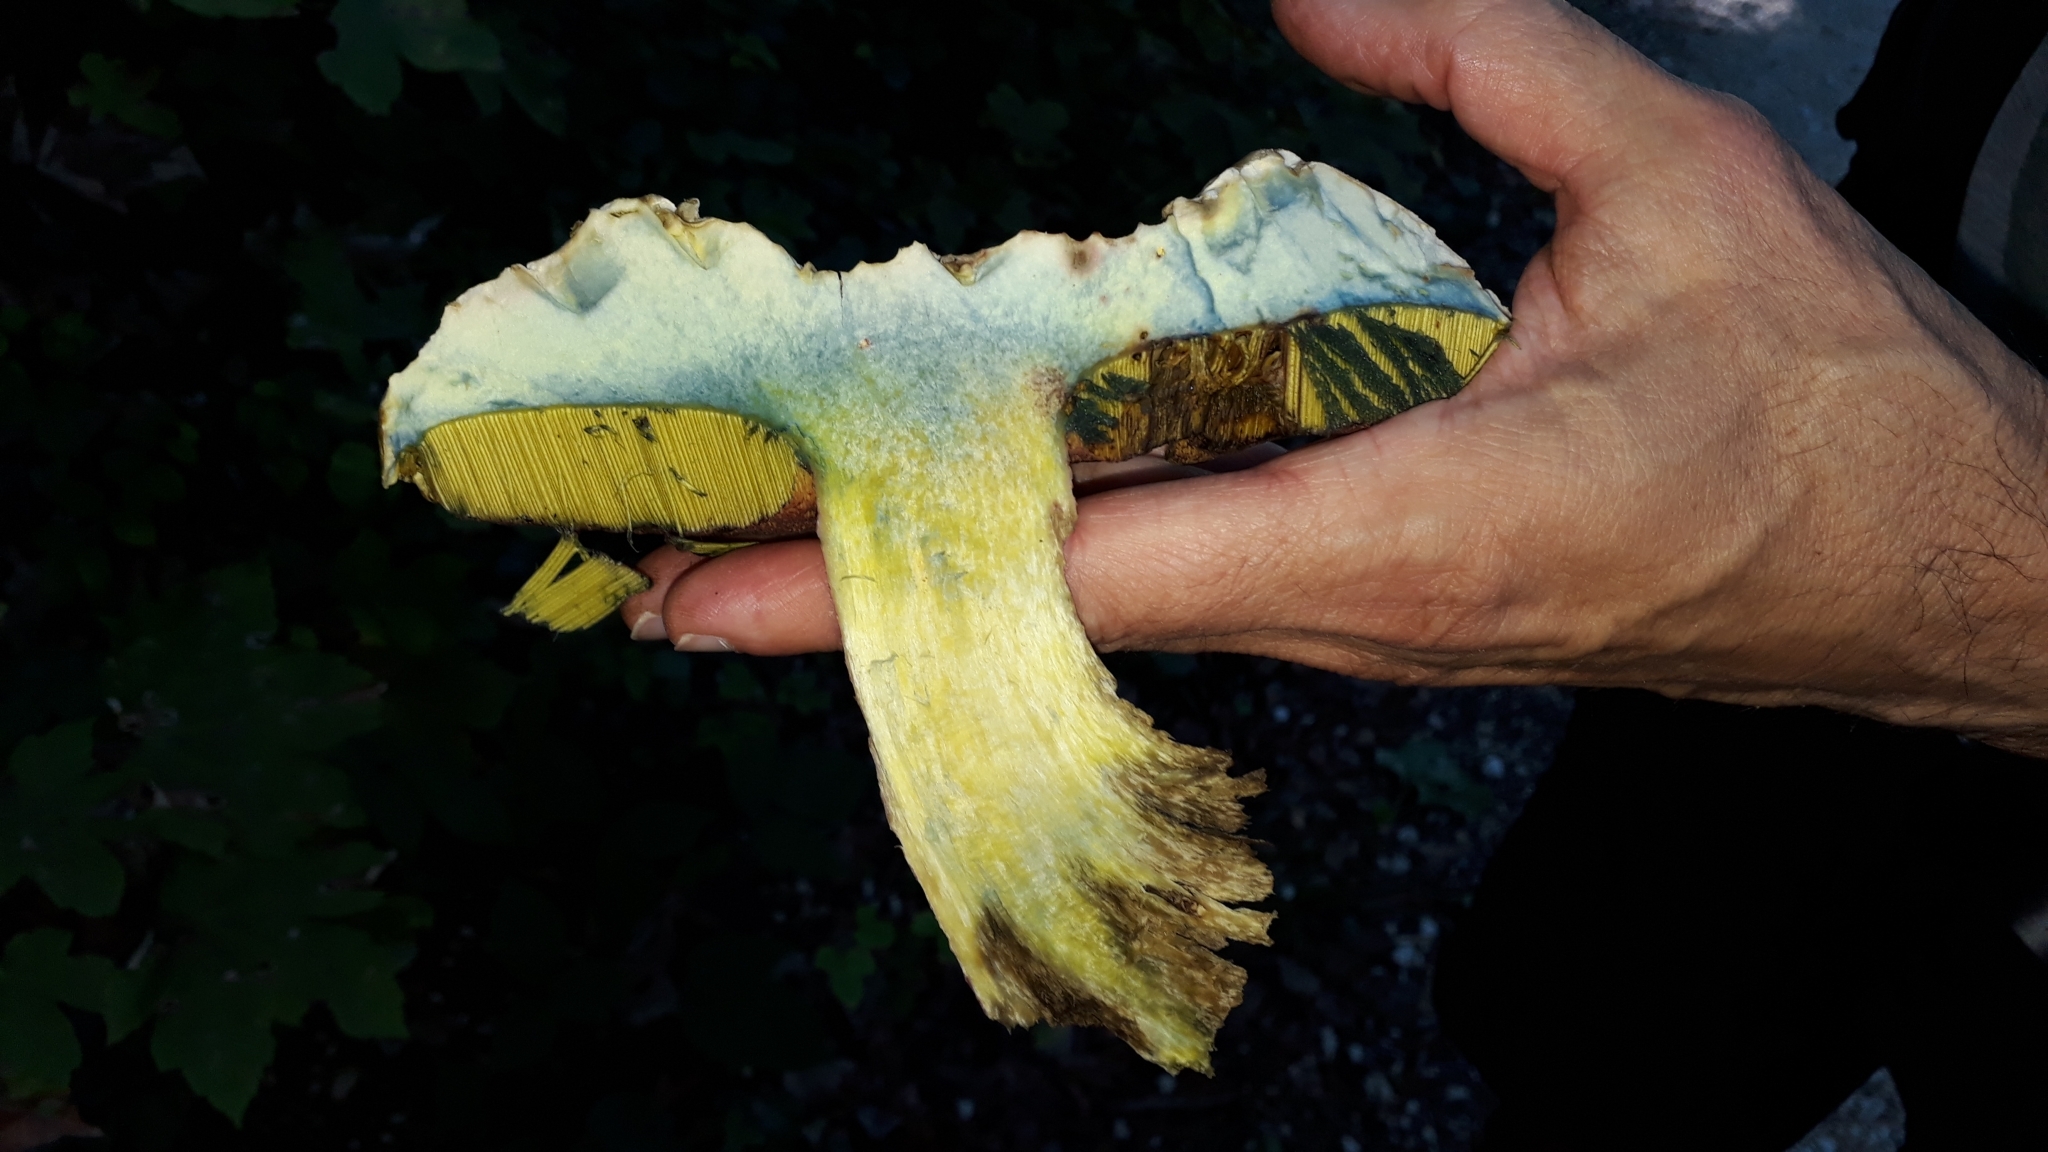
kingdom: Fungi
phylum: Basidiomycota
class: Agaricomycetes
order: Boletales
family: Boletaceae
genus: Rubroboletus
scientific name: Rubroboletus satanas
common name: Devil's bolete
